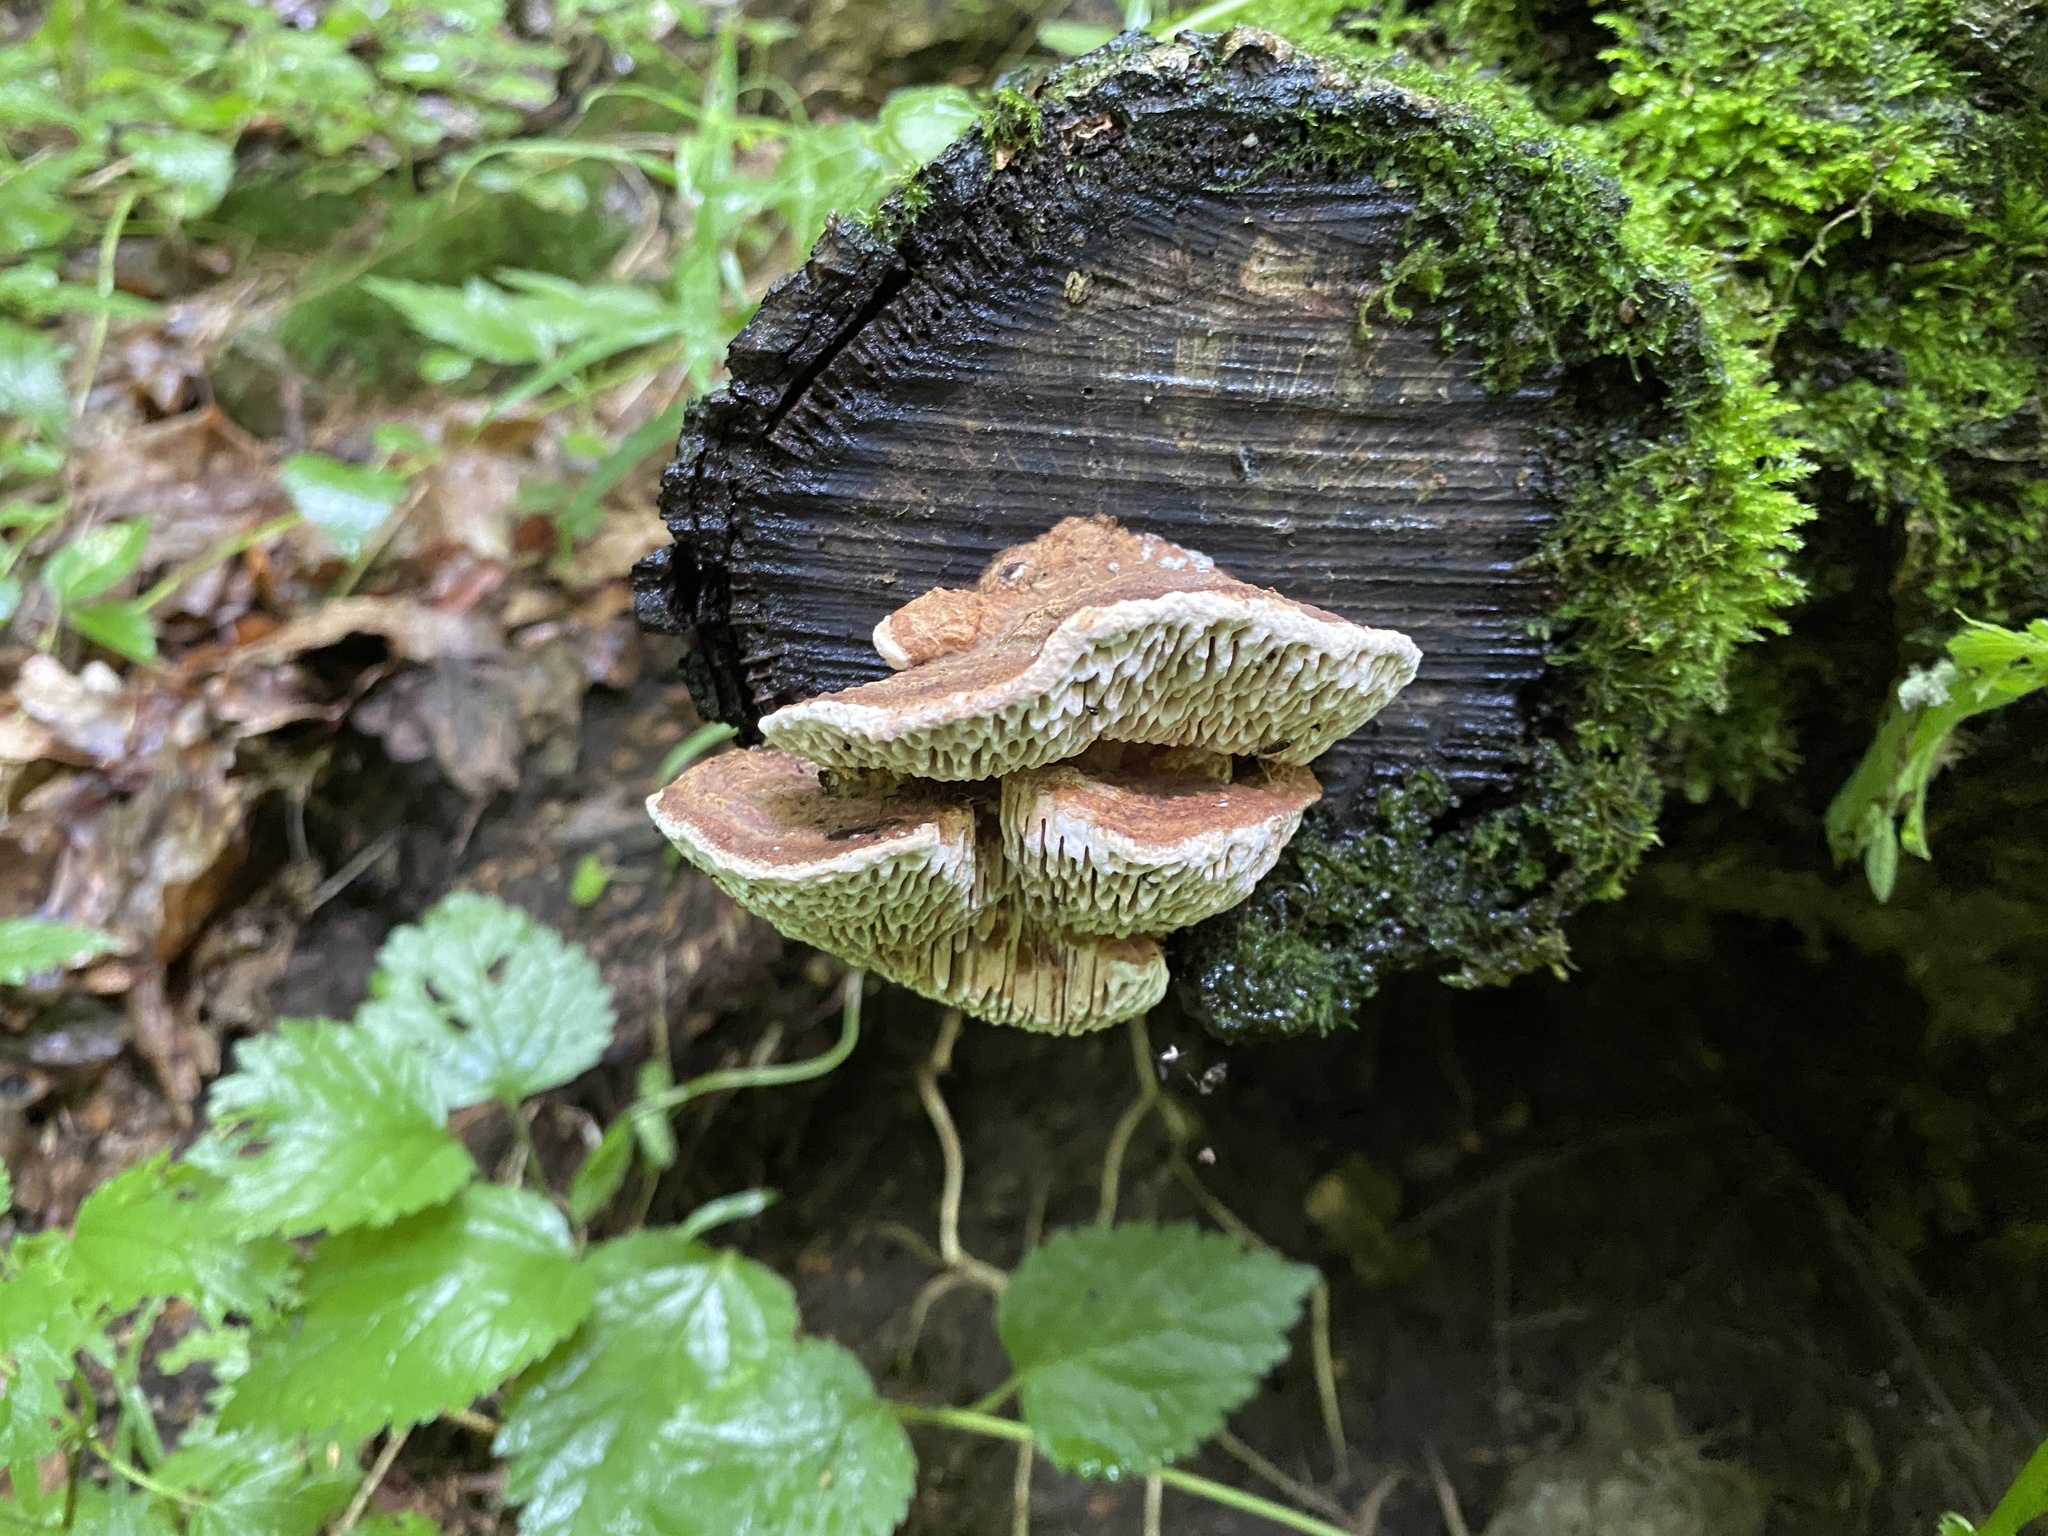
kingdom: Fungi
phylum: Basidiomycota
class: Agaricomycetes
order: Polyporales
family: Fomitopsidaceae
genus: Fomitopsis
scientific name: Fomitopsis
